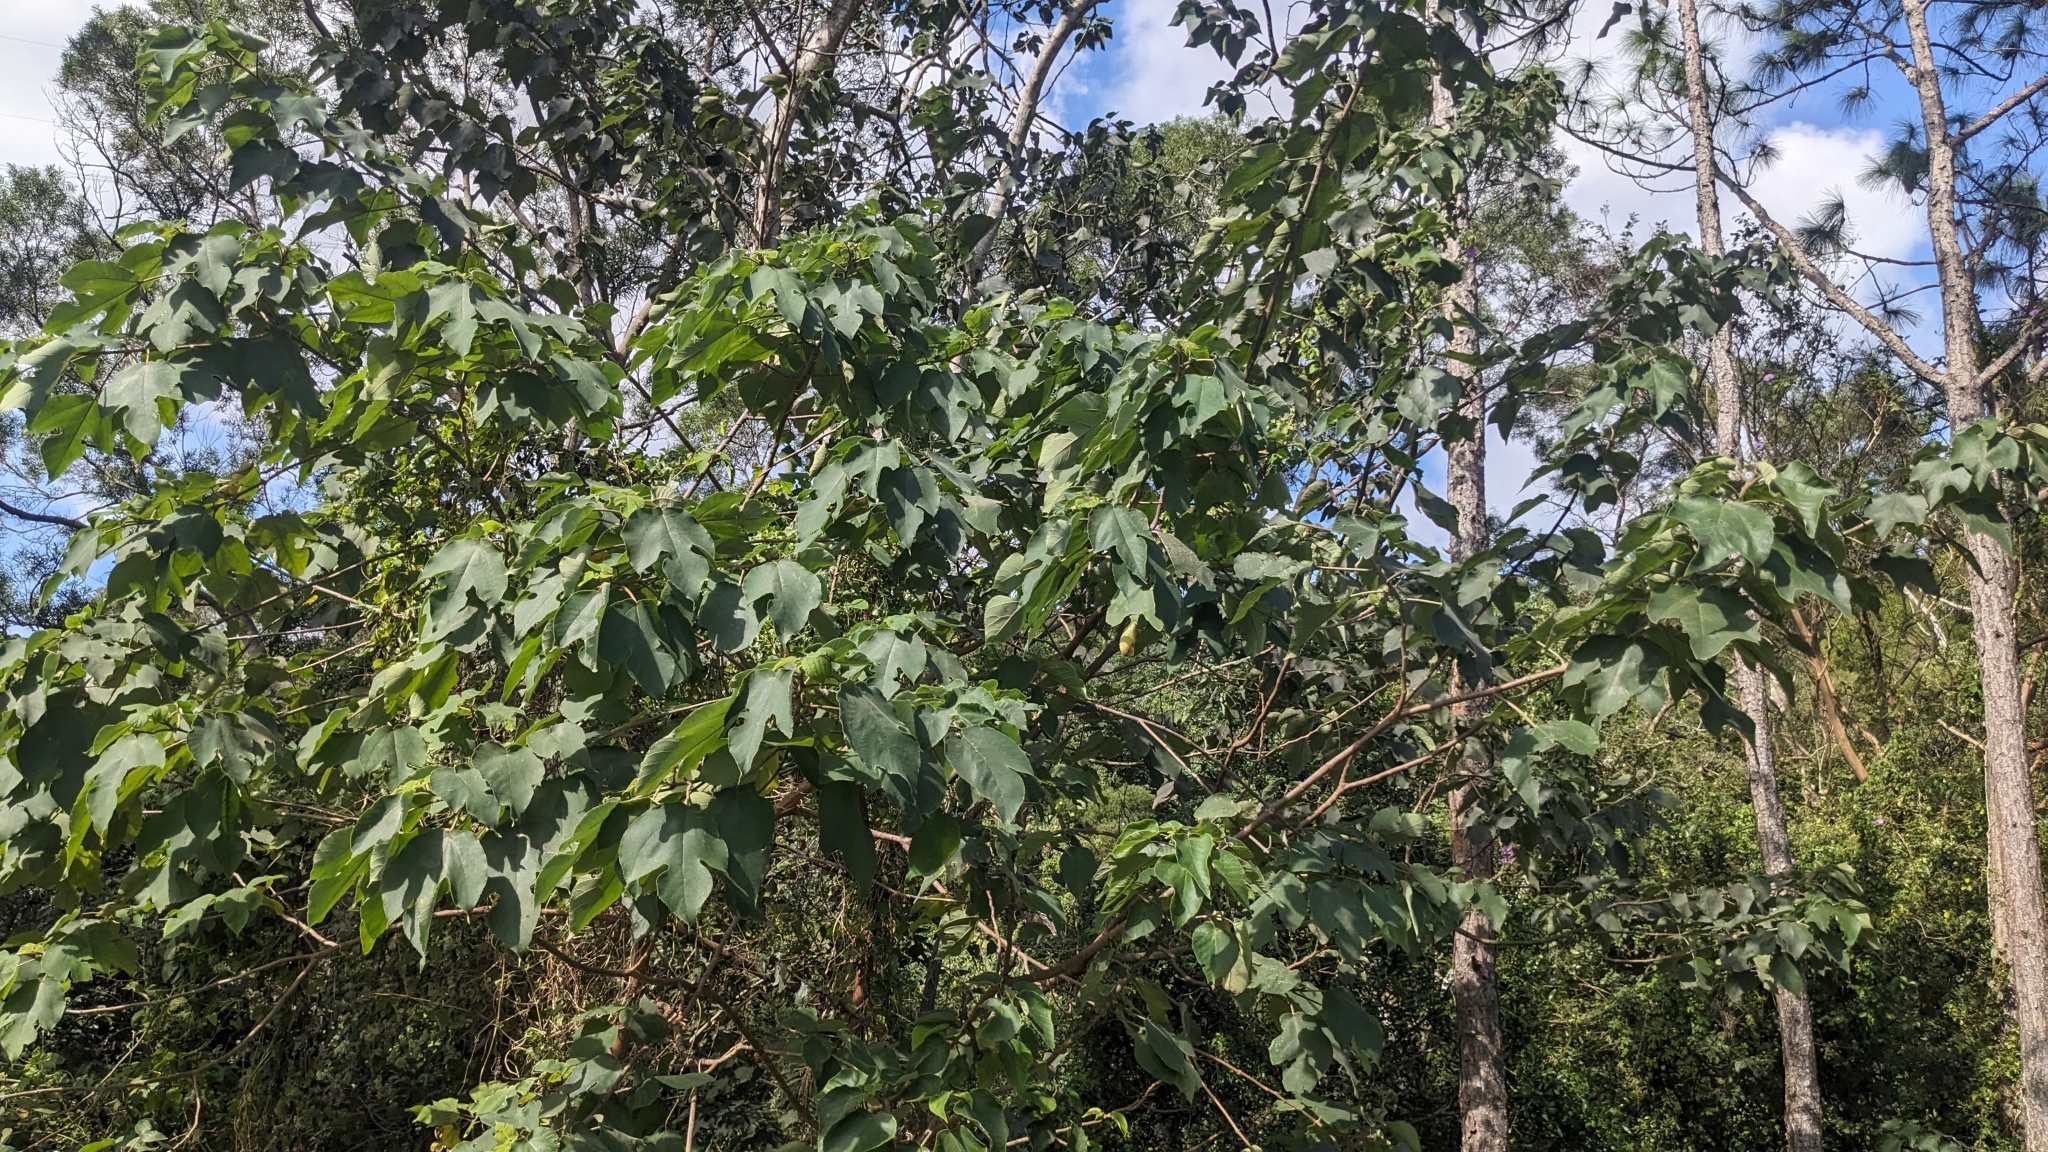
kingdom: Plantae
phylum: Tracheophyta
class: Magnoliopsida
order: Rosales
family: Moraceae
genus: Broussonetia
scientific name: Broussonetia papyrifera
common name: Paper mulberry
